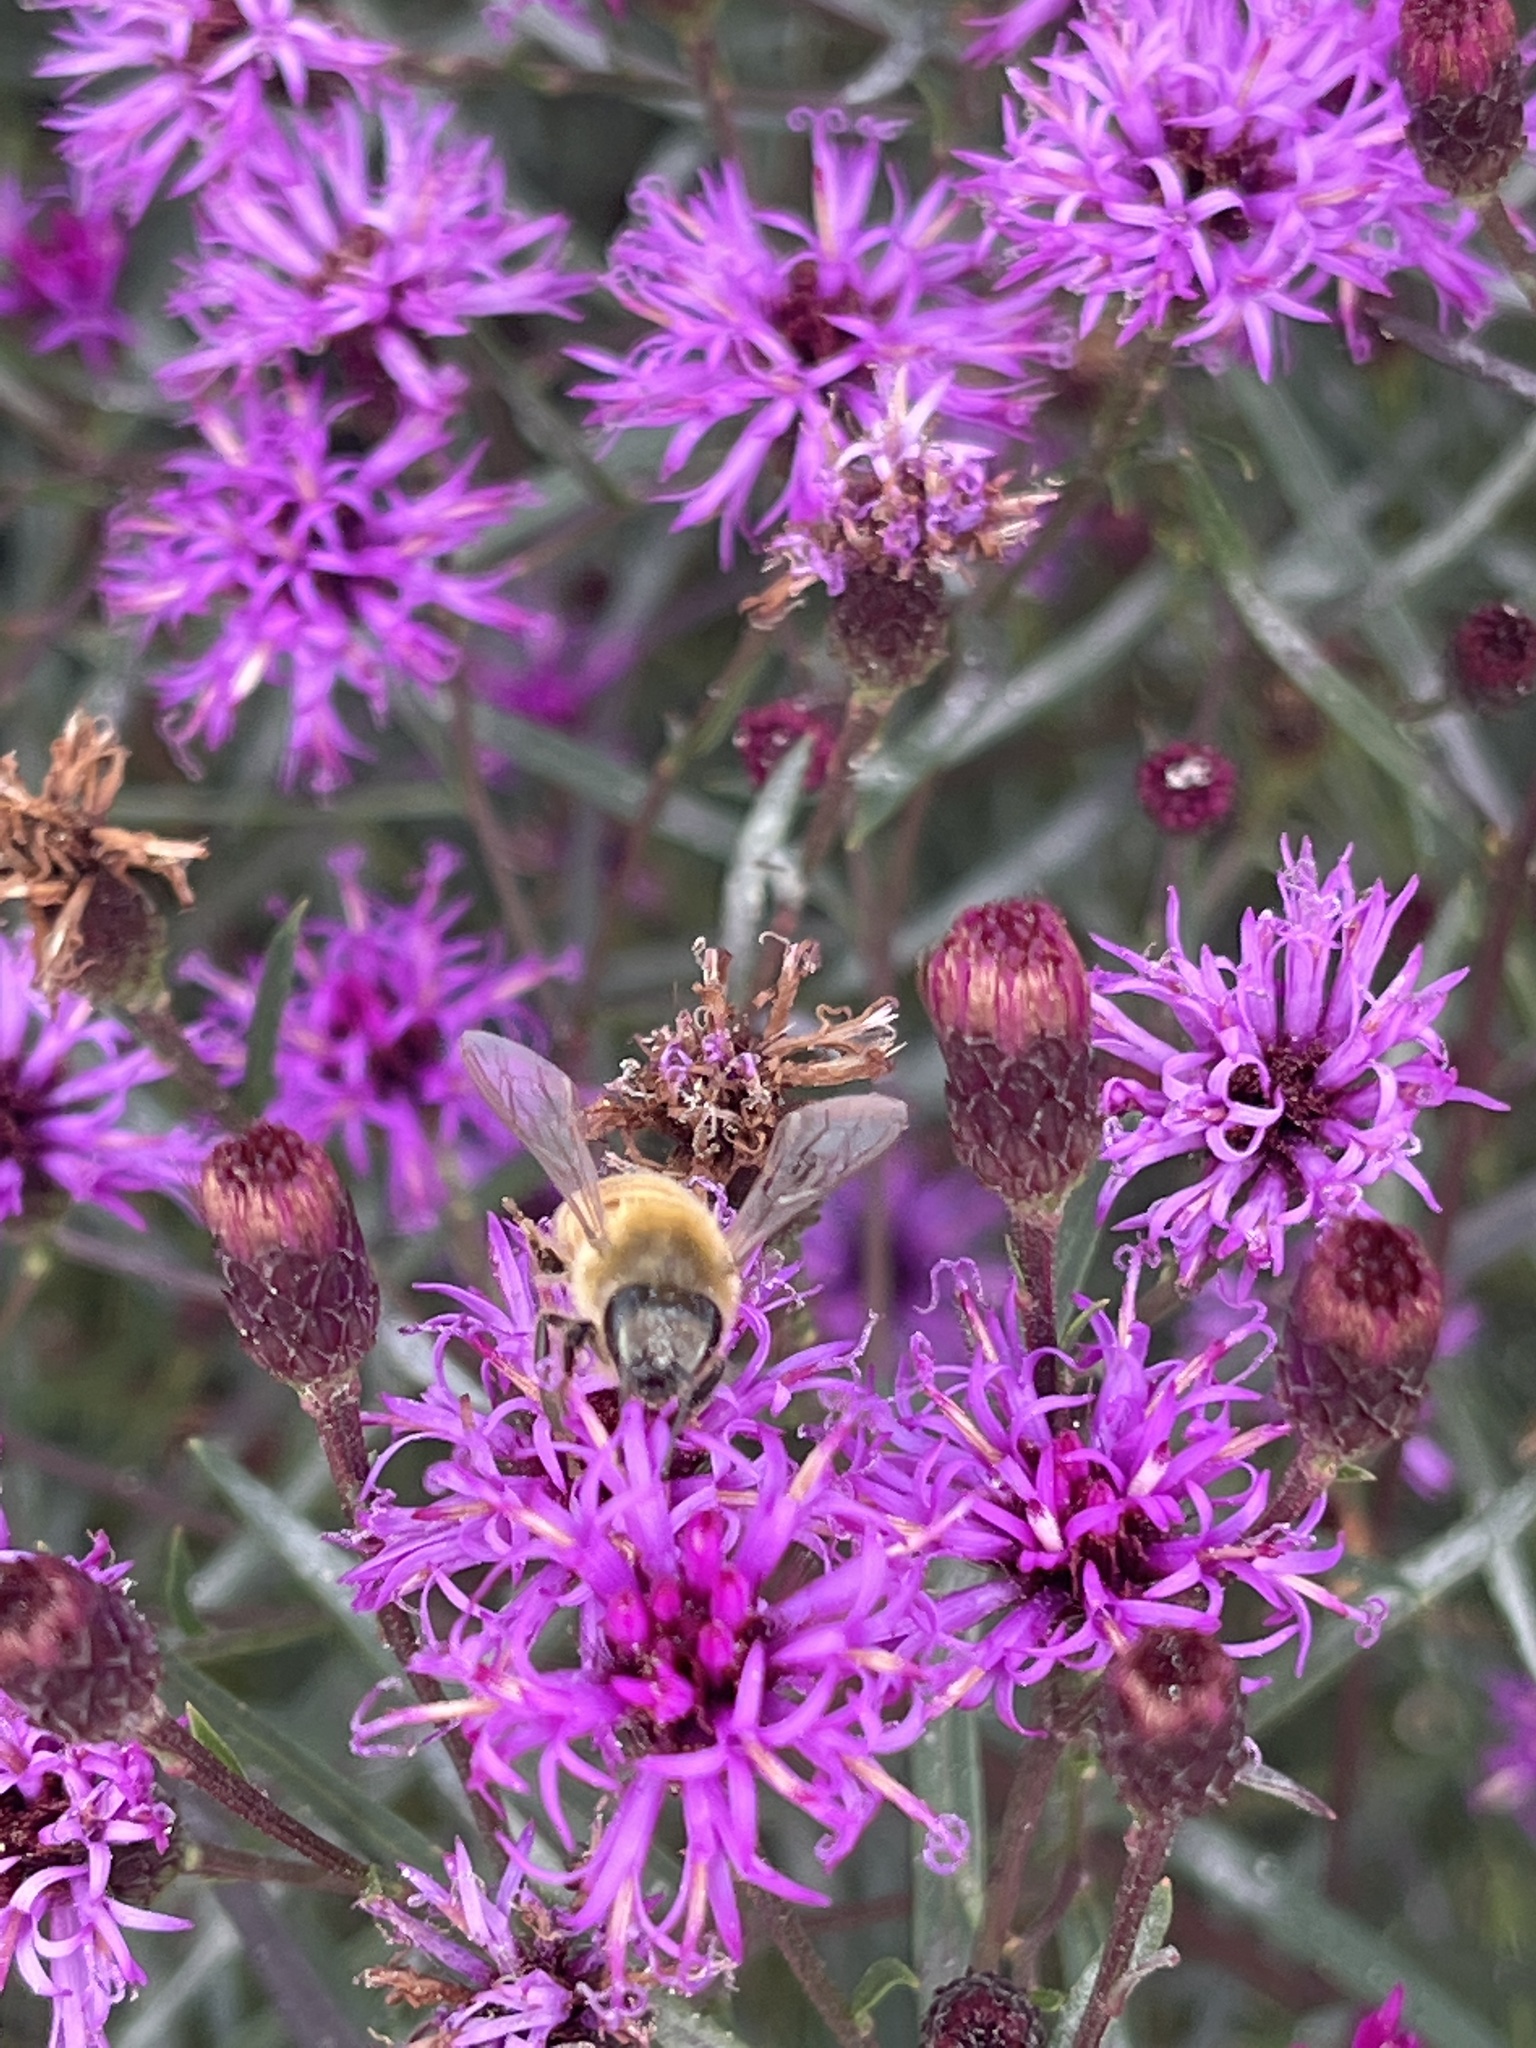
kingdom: Animalia
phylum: Arthropoda
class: Insecta
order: Hymenoptera
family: Apidae
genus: Apis
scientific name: Apis mellifera
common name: Honey bee
